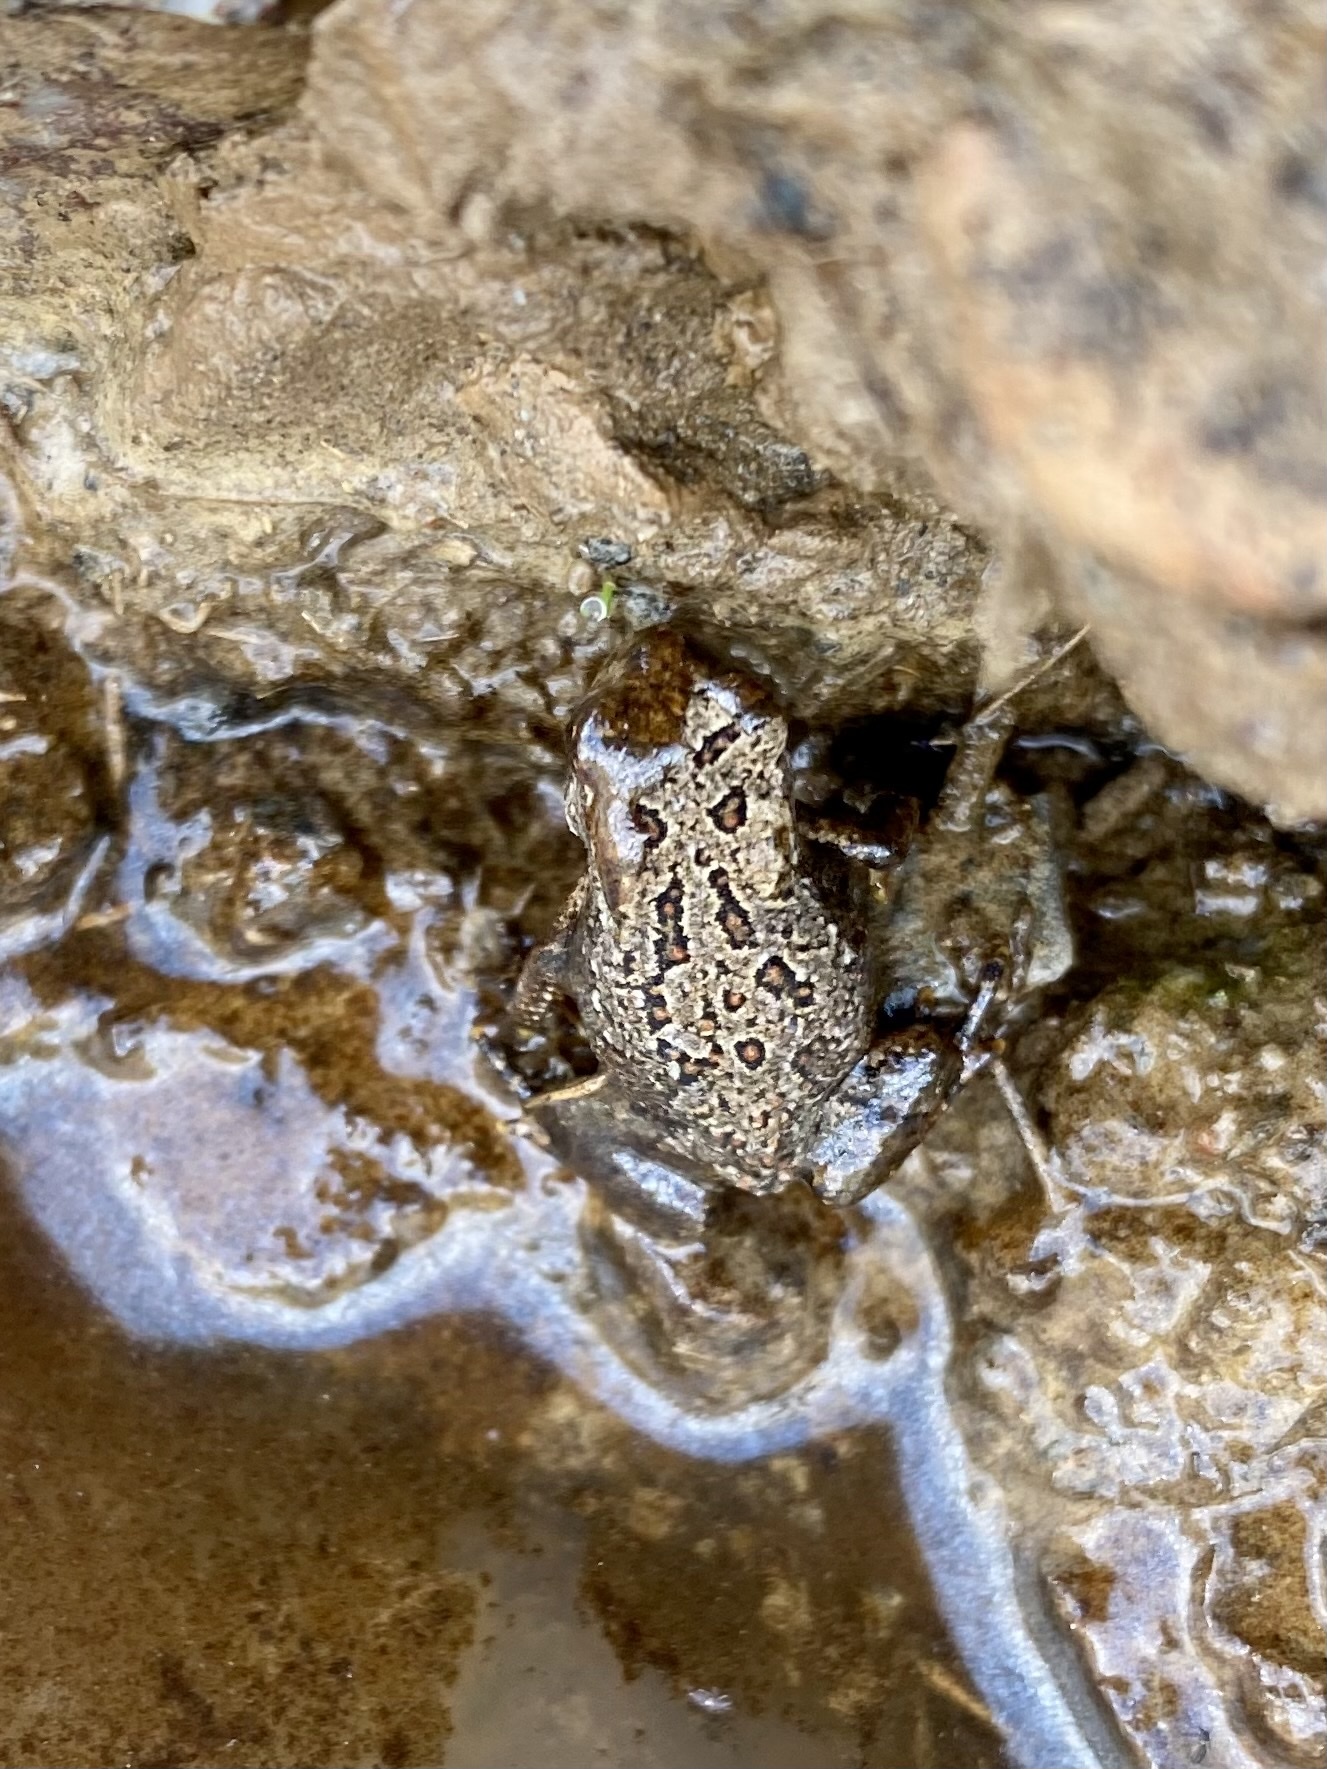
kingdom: Animalia
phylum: Chordata
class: Amphibia
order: Anura
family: Bufonidae
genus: Anaxyrus
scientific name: Anaxyrus americanus
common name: American toad
